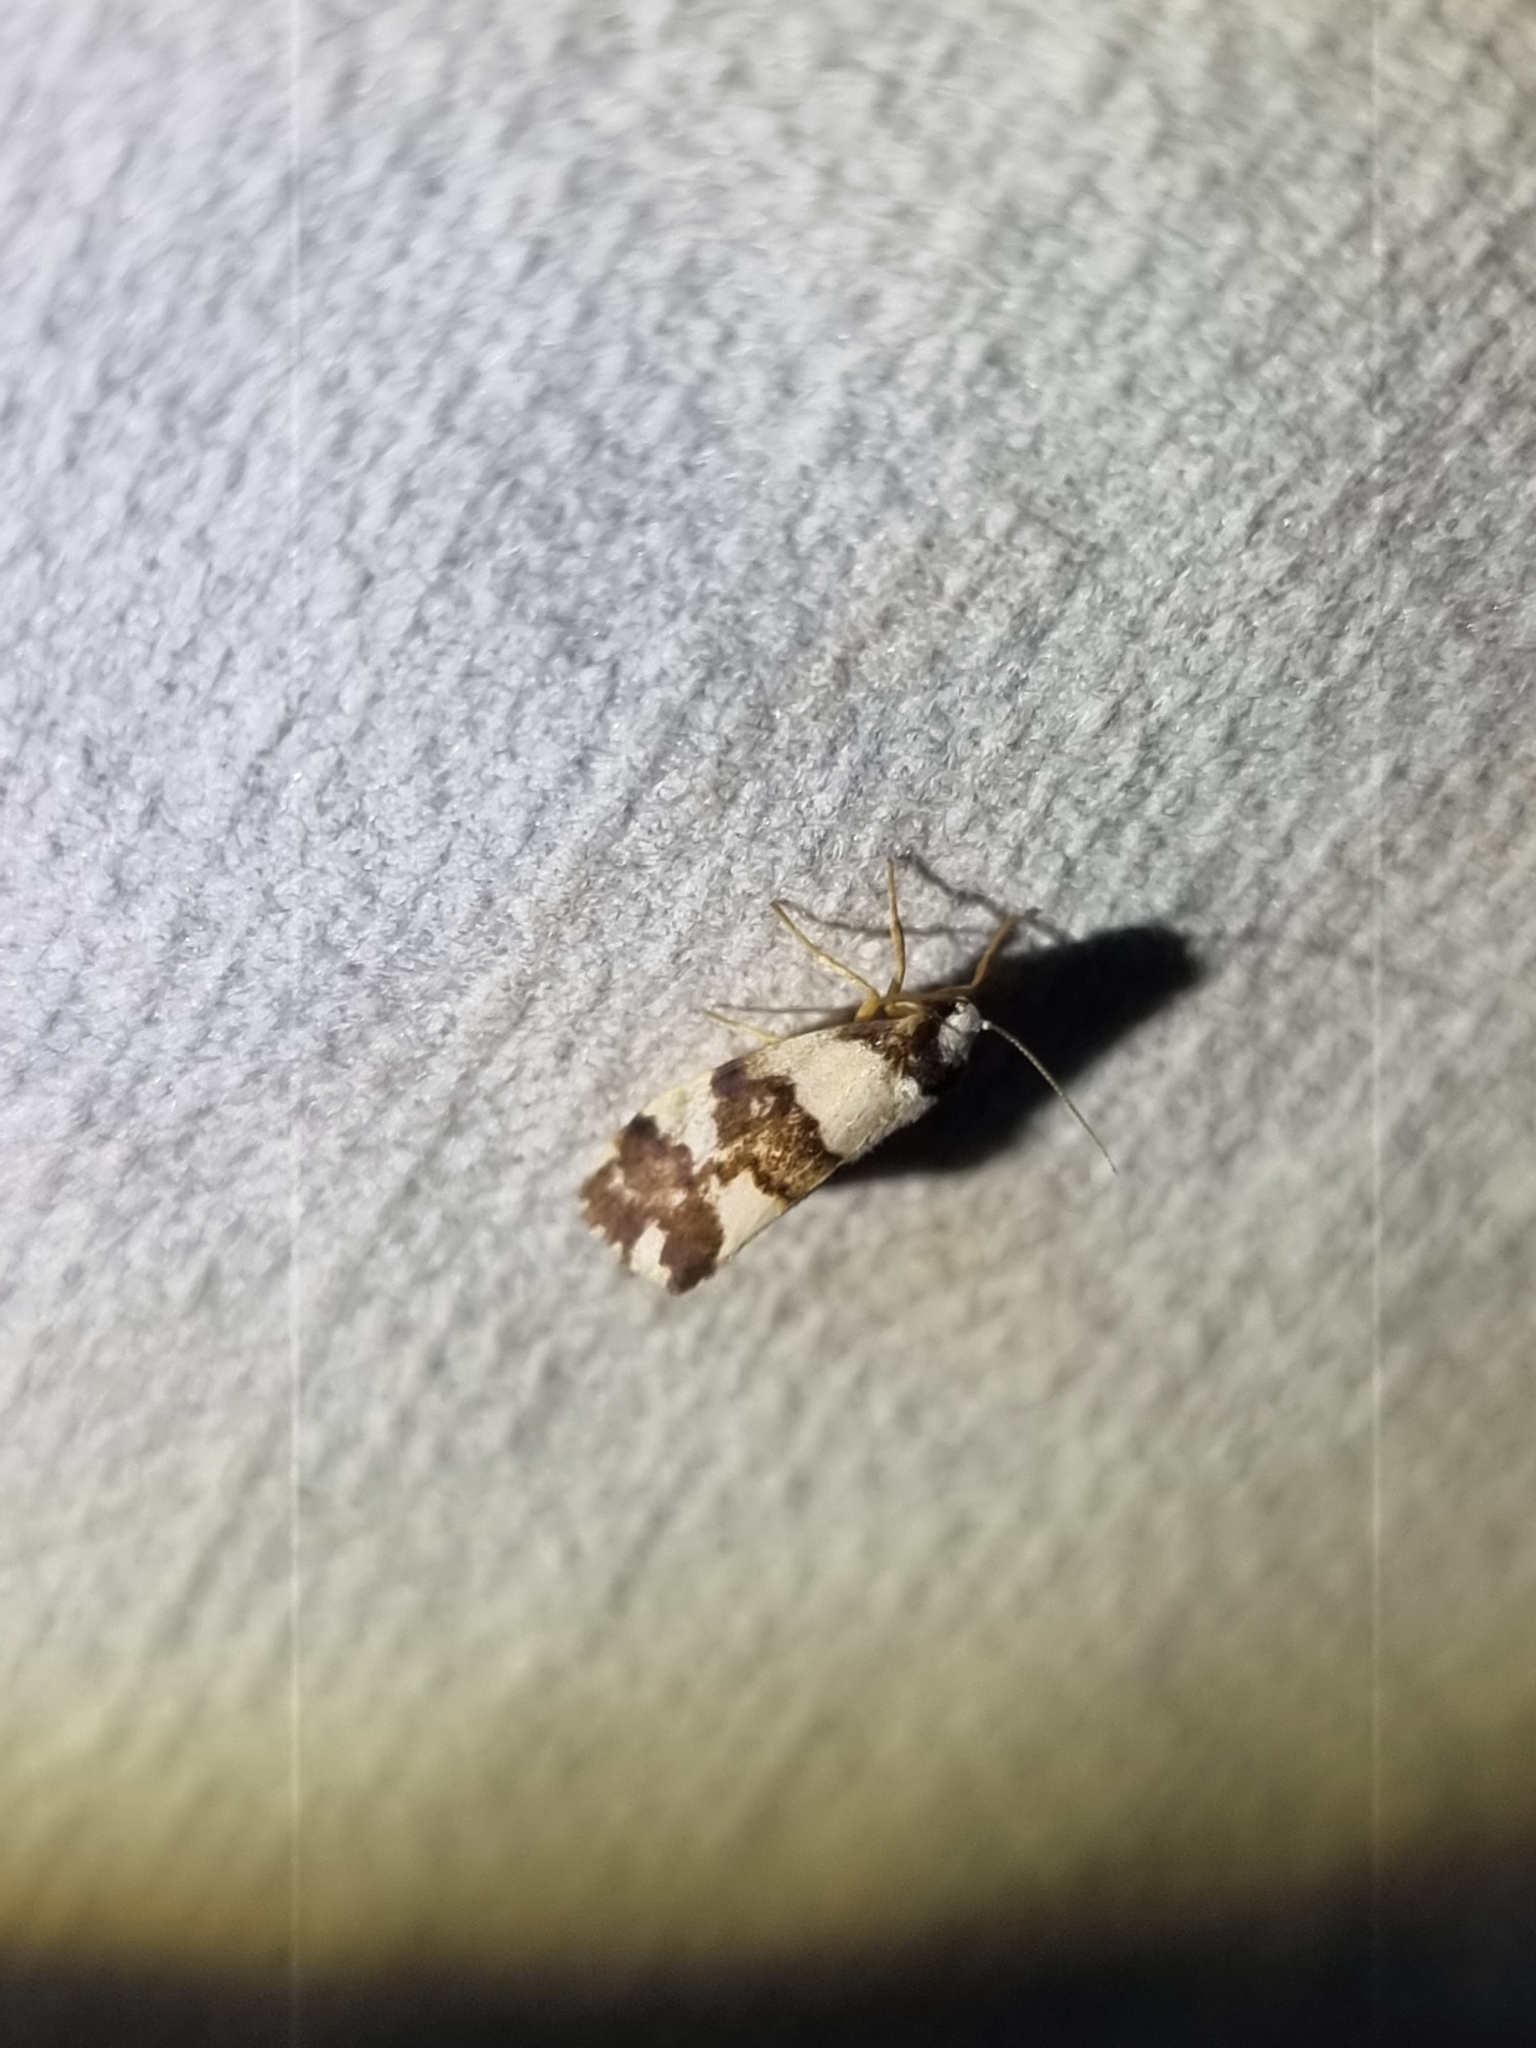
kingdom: Animalia
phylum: Arthropoda
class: Insecta
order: Lepidoptera
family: Erebidae
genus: Philenora
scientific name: Philenora aspectalella
